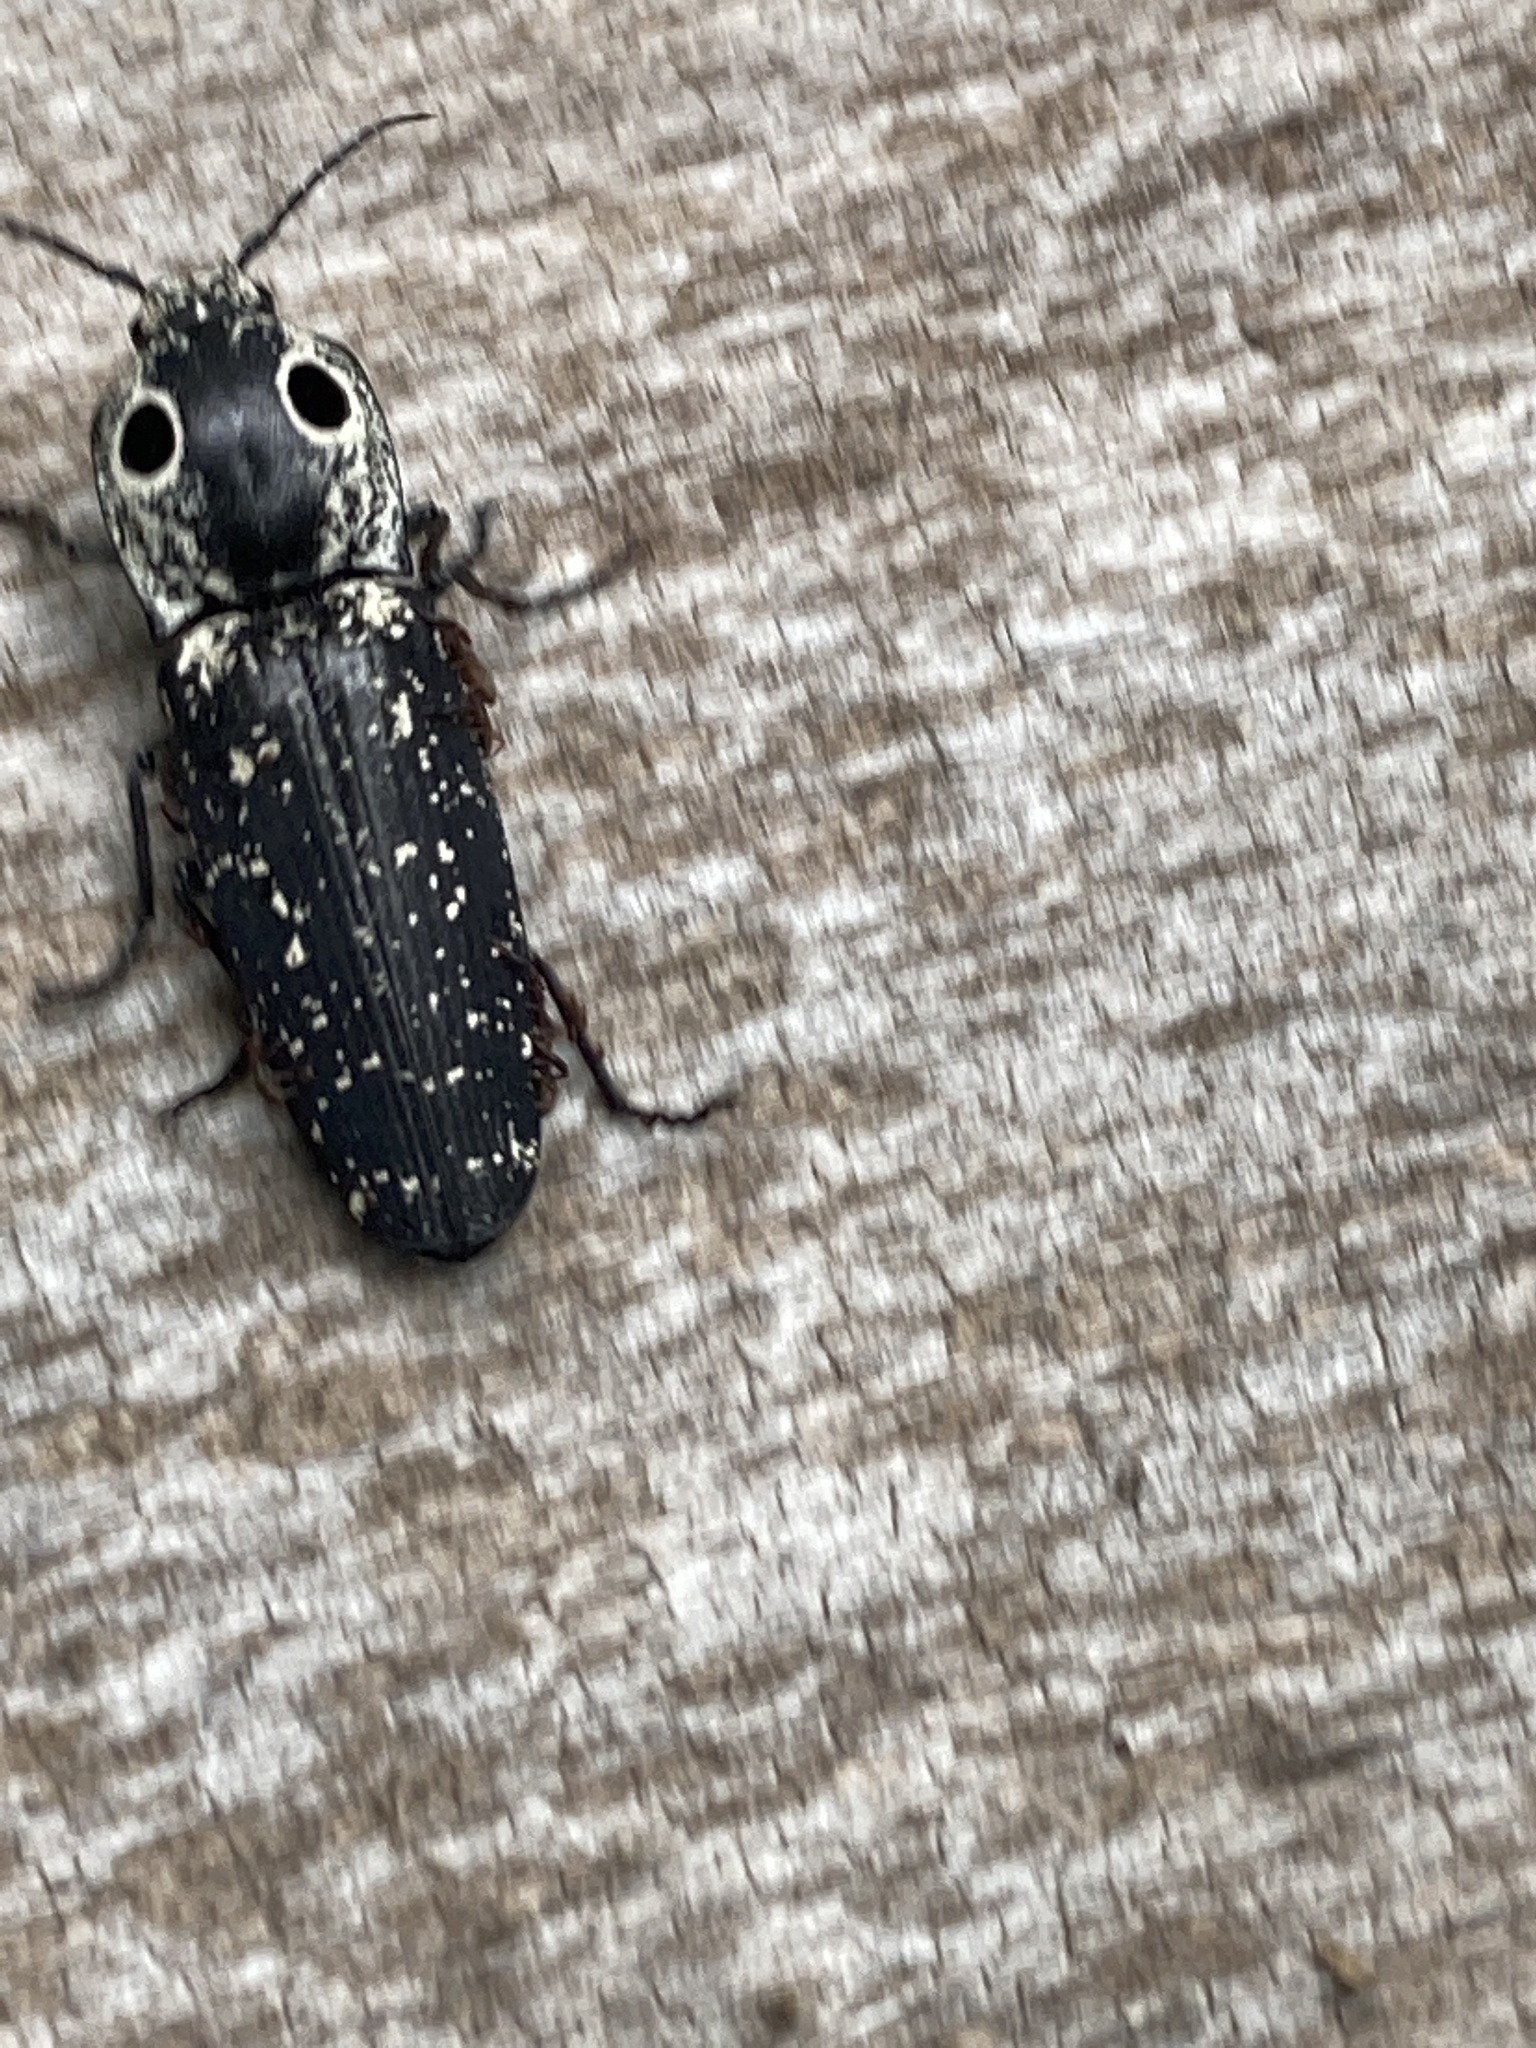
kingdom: Animalia
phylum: Arthropoda
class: Insecta
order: Coleoptera
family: Elateridae
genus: Alaus
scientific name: Alaus oculatus
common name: Eastern eyed click beetle
